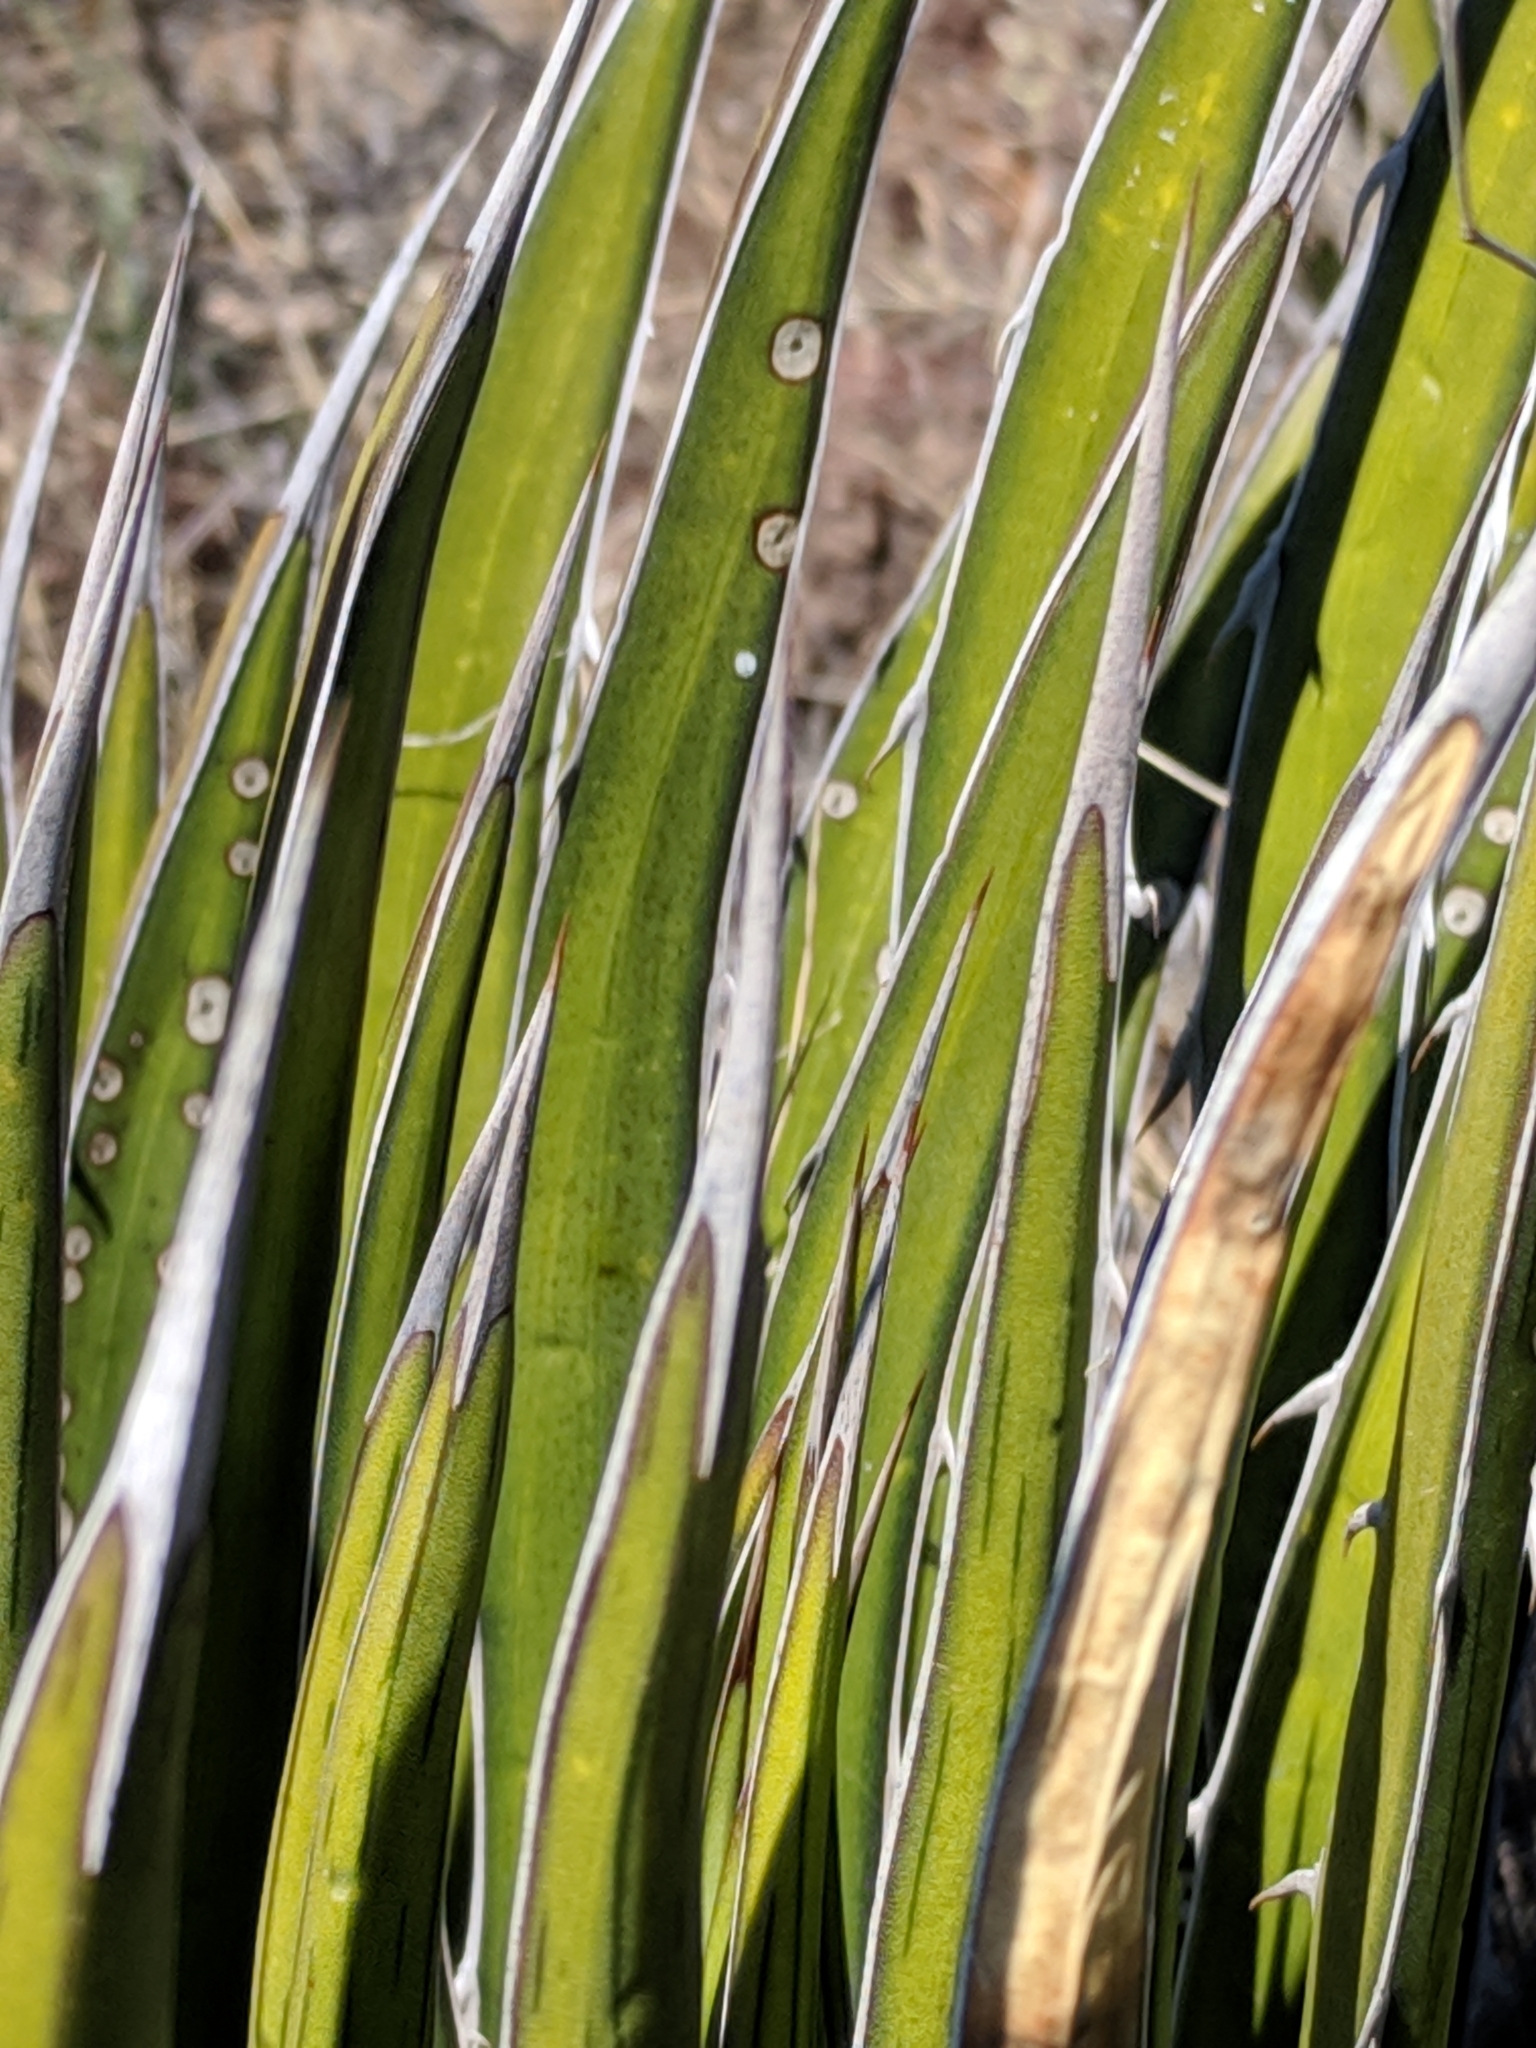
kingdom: Plantae
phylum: Tracheophyta
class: Liliopsida
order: Asparagales
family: Asparagaceae
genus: Agave
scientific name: Agave lechuguilla
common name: Lecheguilla agave
